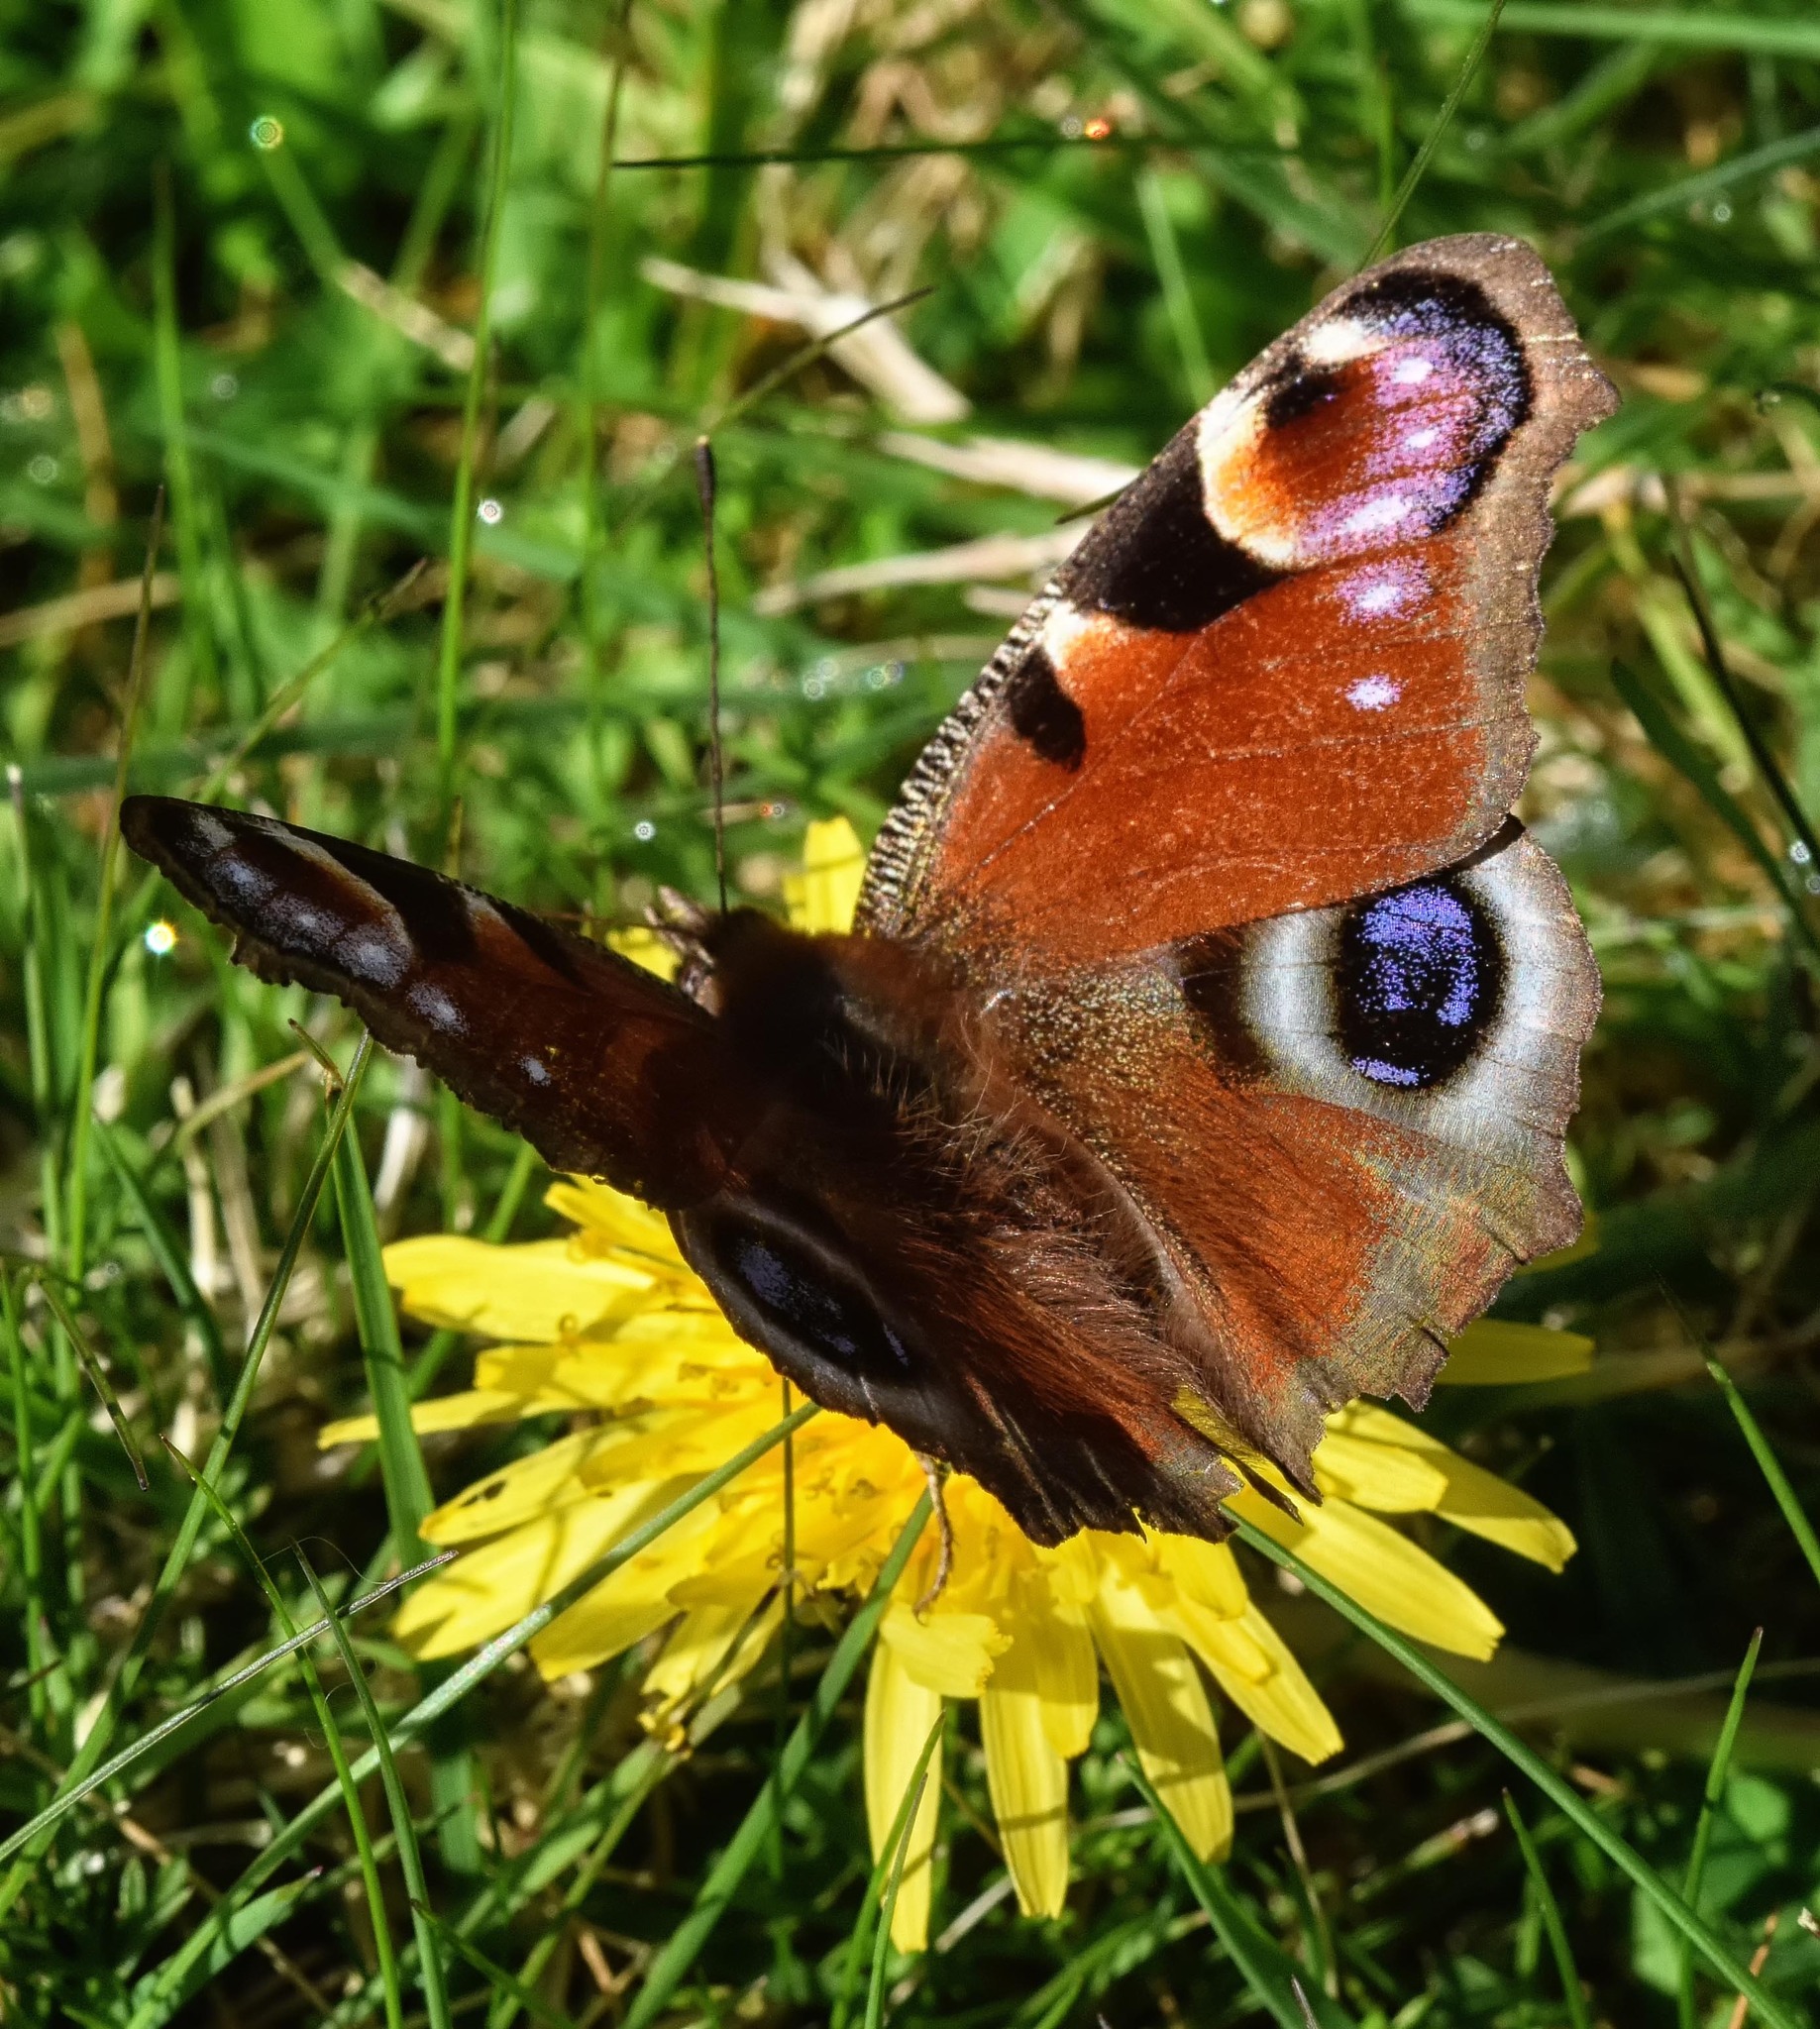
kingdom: Animalia
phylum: Arthropoda
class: Insecta
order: Lepidoptera
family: Nymphalidae
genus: Aglais
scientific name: Aglais io
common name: Peacock
